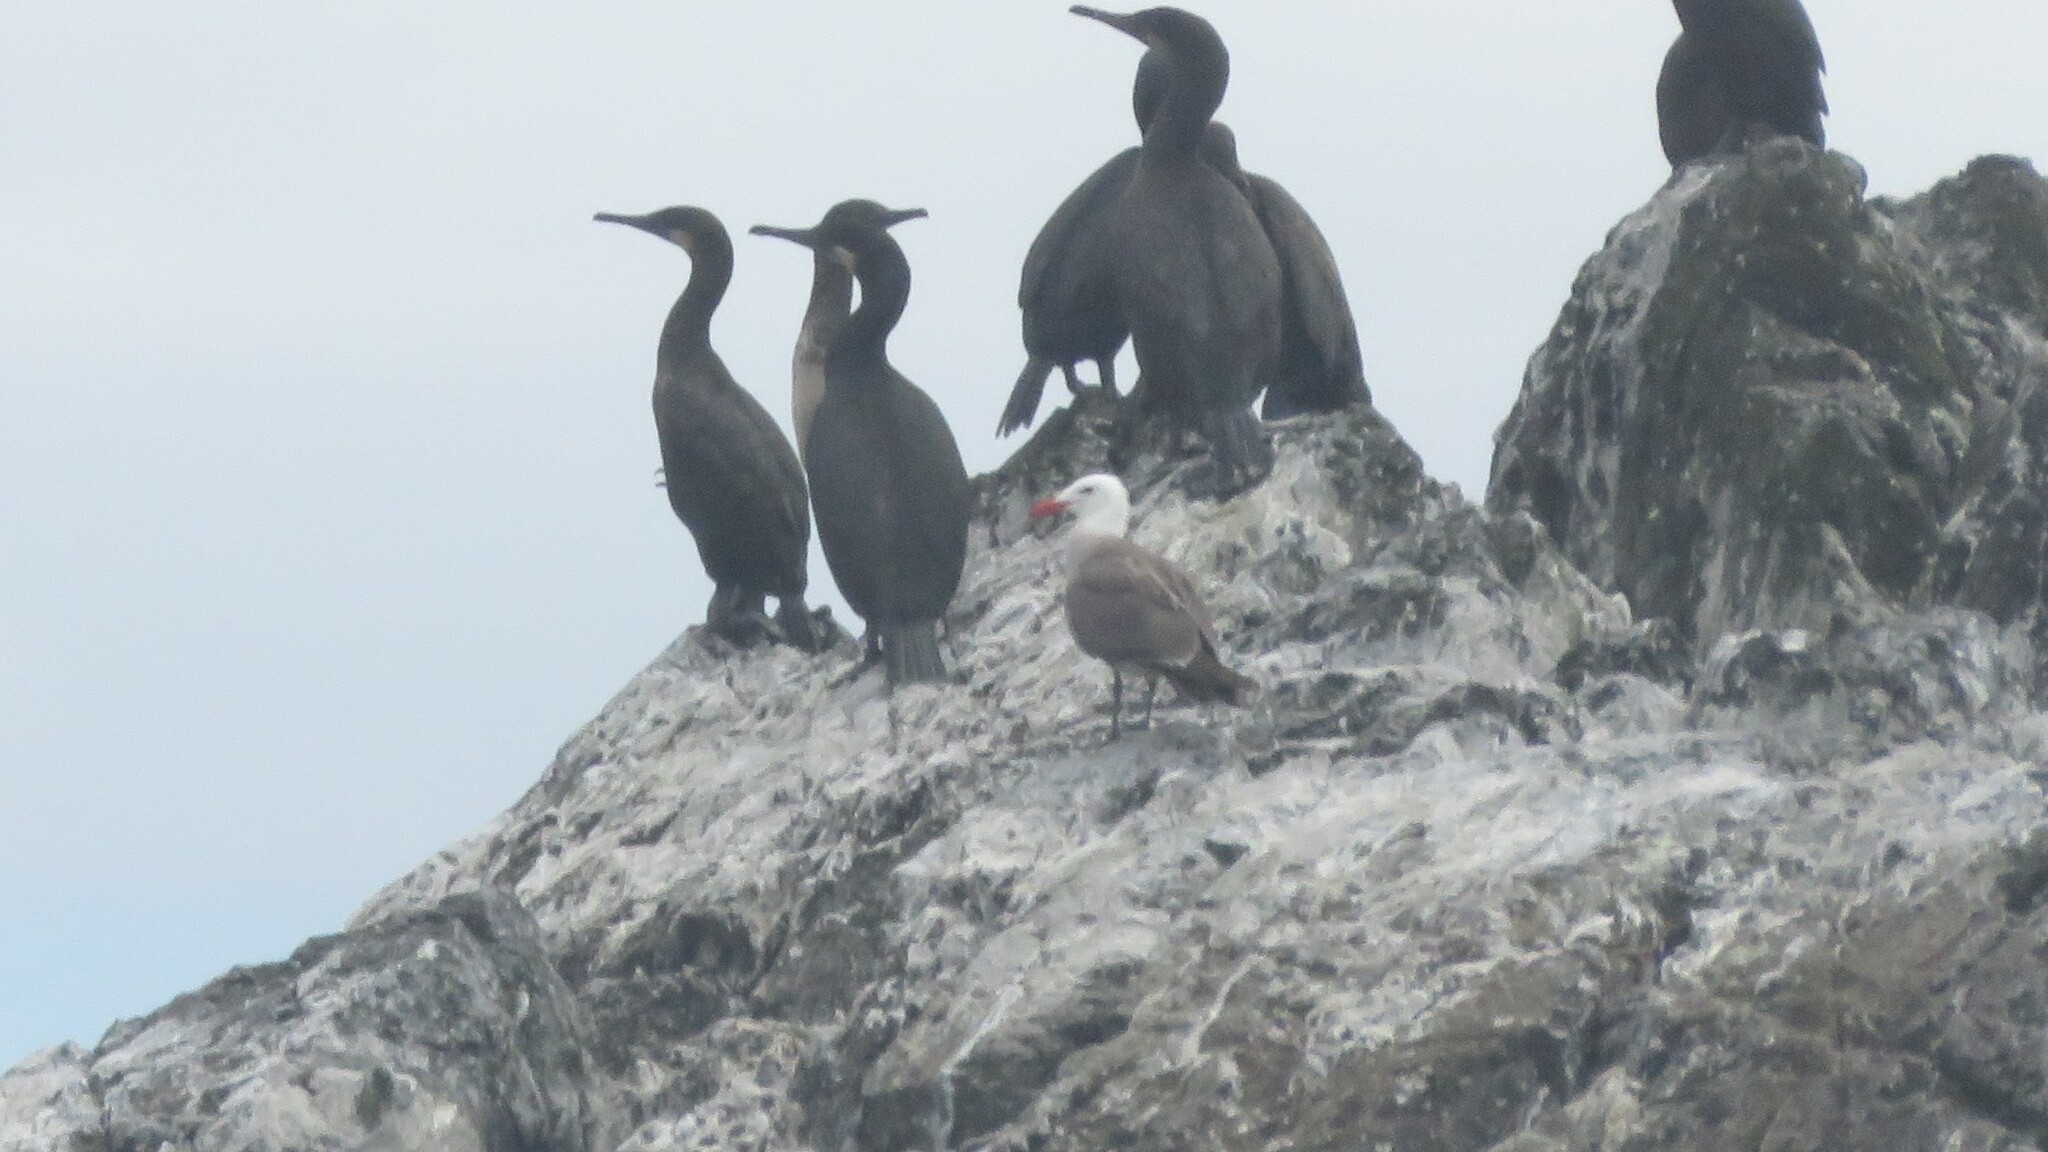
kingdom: Animalia
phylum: Chordata
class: Aves
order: Charadriiformes
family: Laridae
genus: Larus
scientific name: Larus heermanni
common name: Heermann's gull
